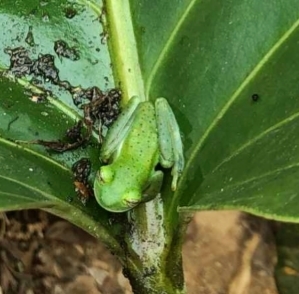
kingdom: Animalia
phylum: Chordata
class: Amphibia
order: Anura
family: Centrolenidae
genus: Espadarana
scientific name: Espadarana prosoblepon
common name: Rana de cristal variable
